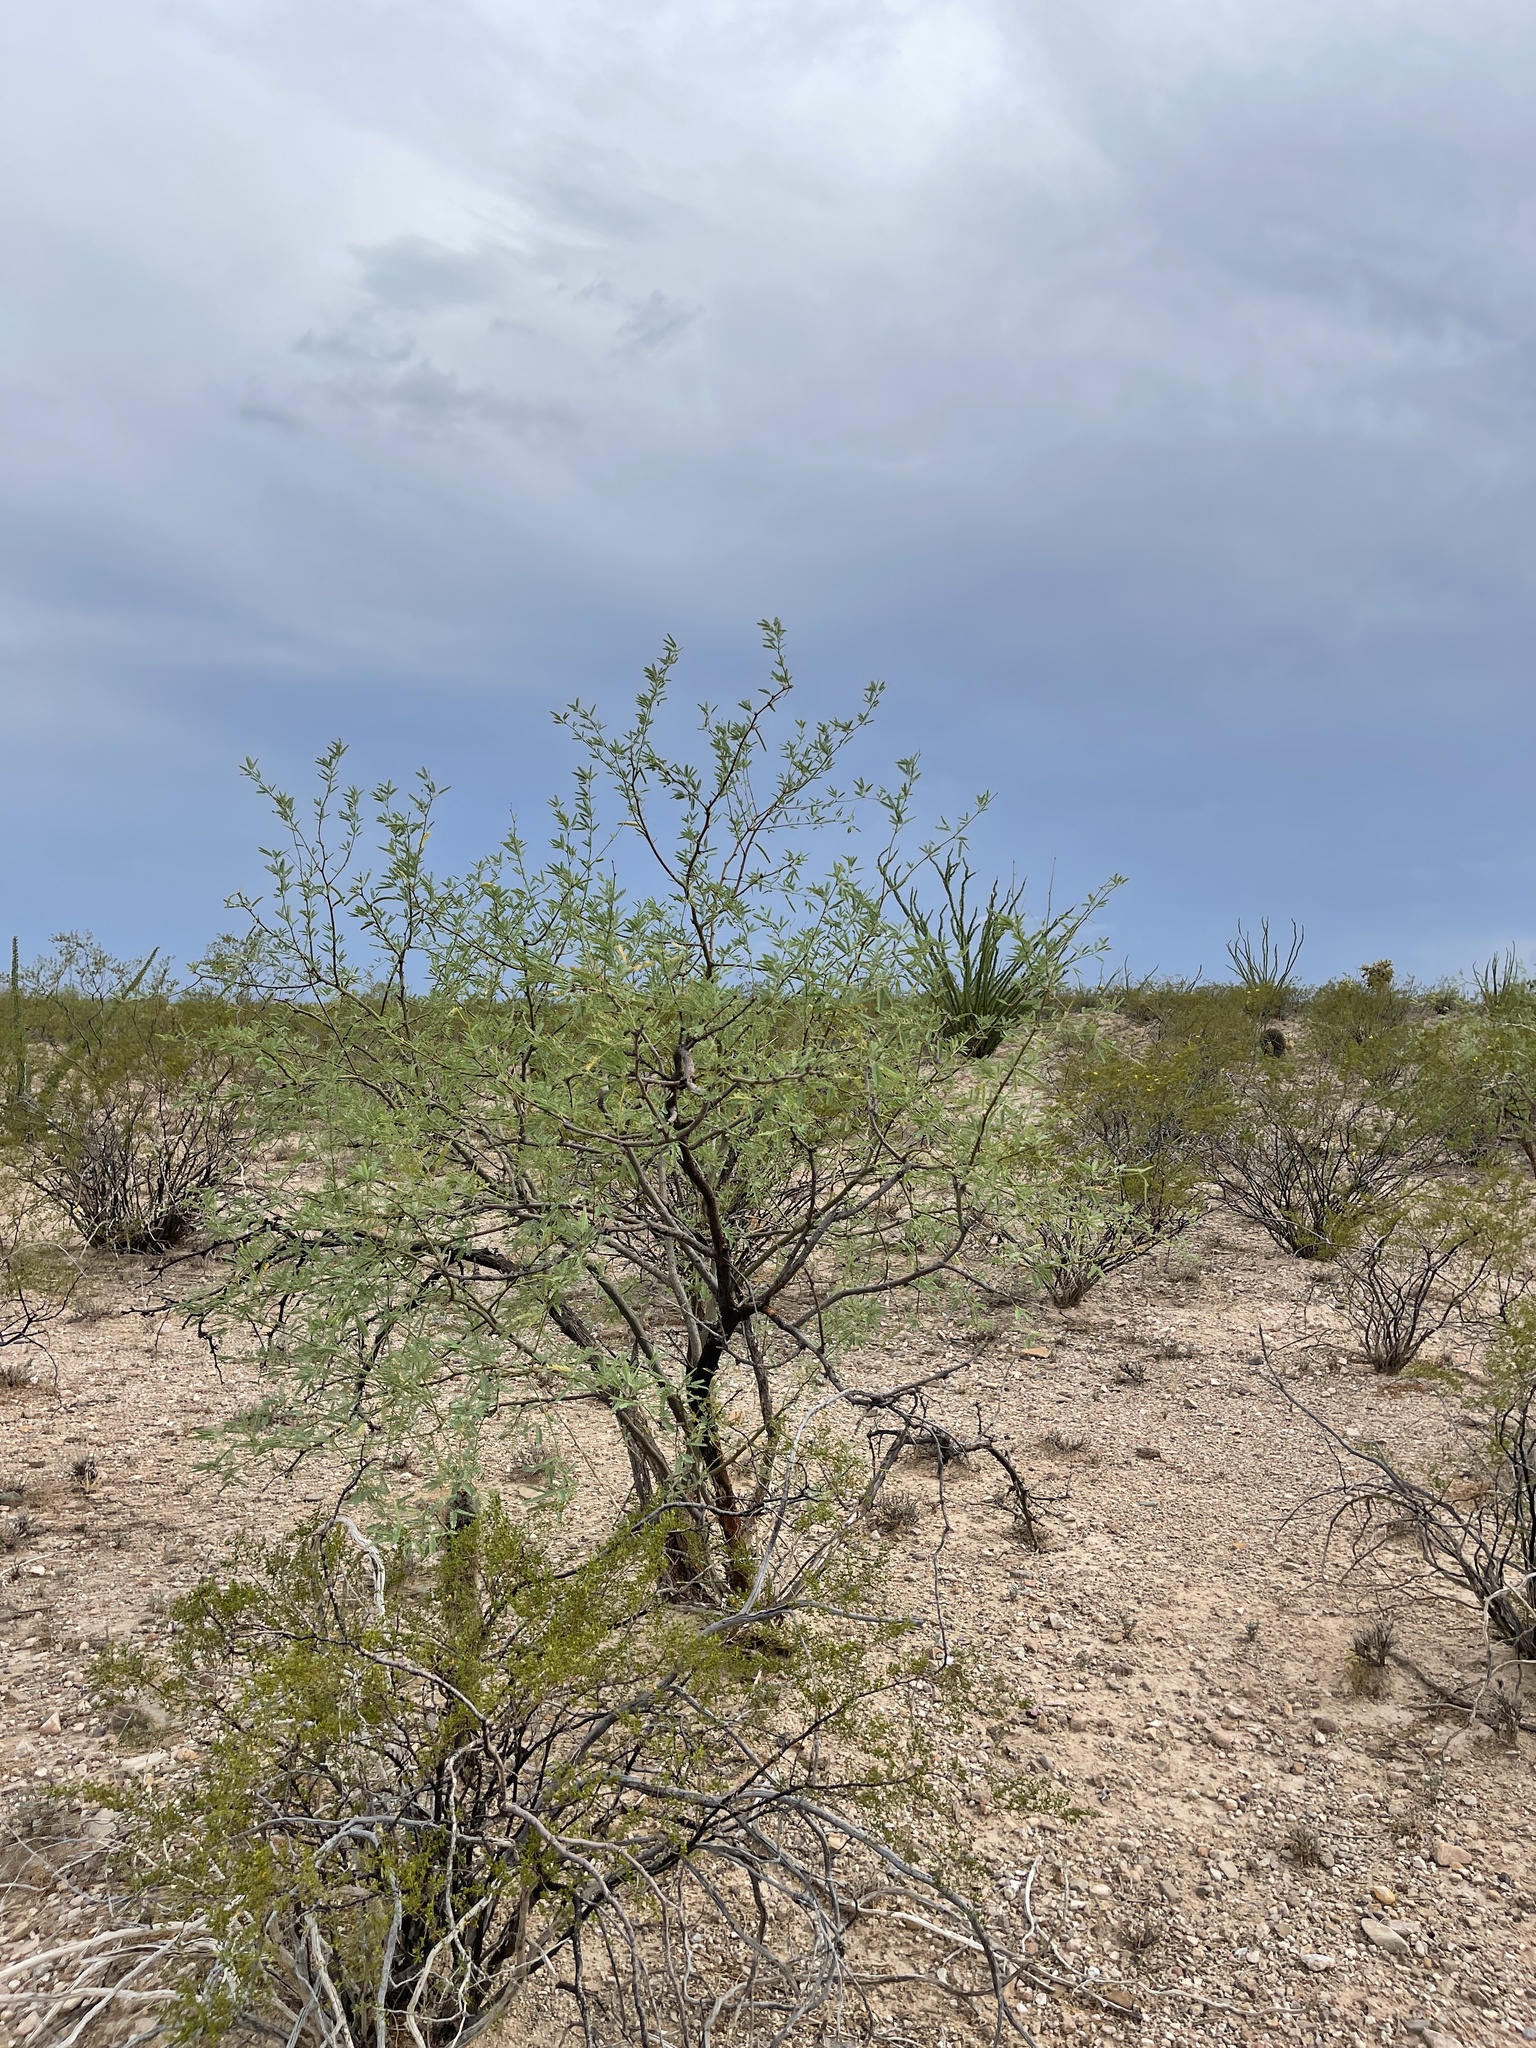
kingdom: Plantae
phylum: Tracheophyta
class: Magnoliopsida
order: Fabales
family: Fabaceae
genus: Prosopis
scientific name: Prosopis velutina
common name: Velvet mesquite
